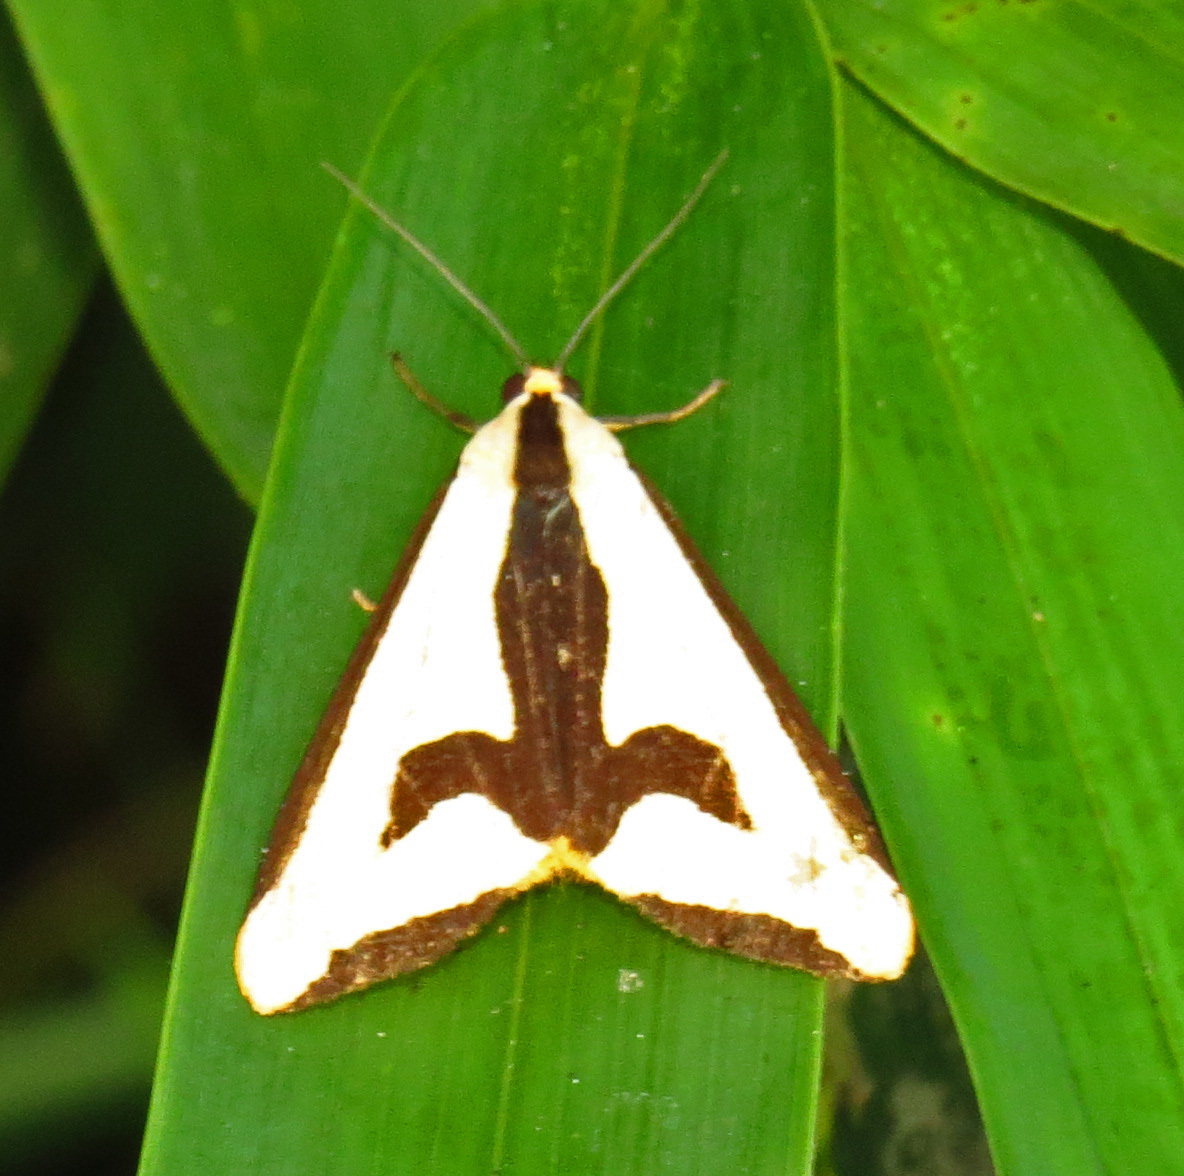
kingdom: Animalia
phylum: Arthropoda
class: Insecta
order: Lepidoptera
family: Erebidae
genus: Haploa
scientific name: Haploa clymene
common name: Clymene moth
